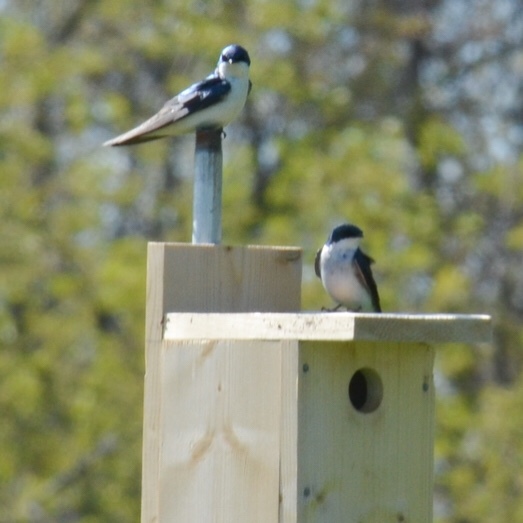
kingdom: Animalia
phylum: Chordata
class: Aves
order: Passeriformes
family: Hirundinidae
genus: Tachycineta
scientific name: Tachycineta bicolor
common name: Tree swallow
